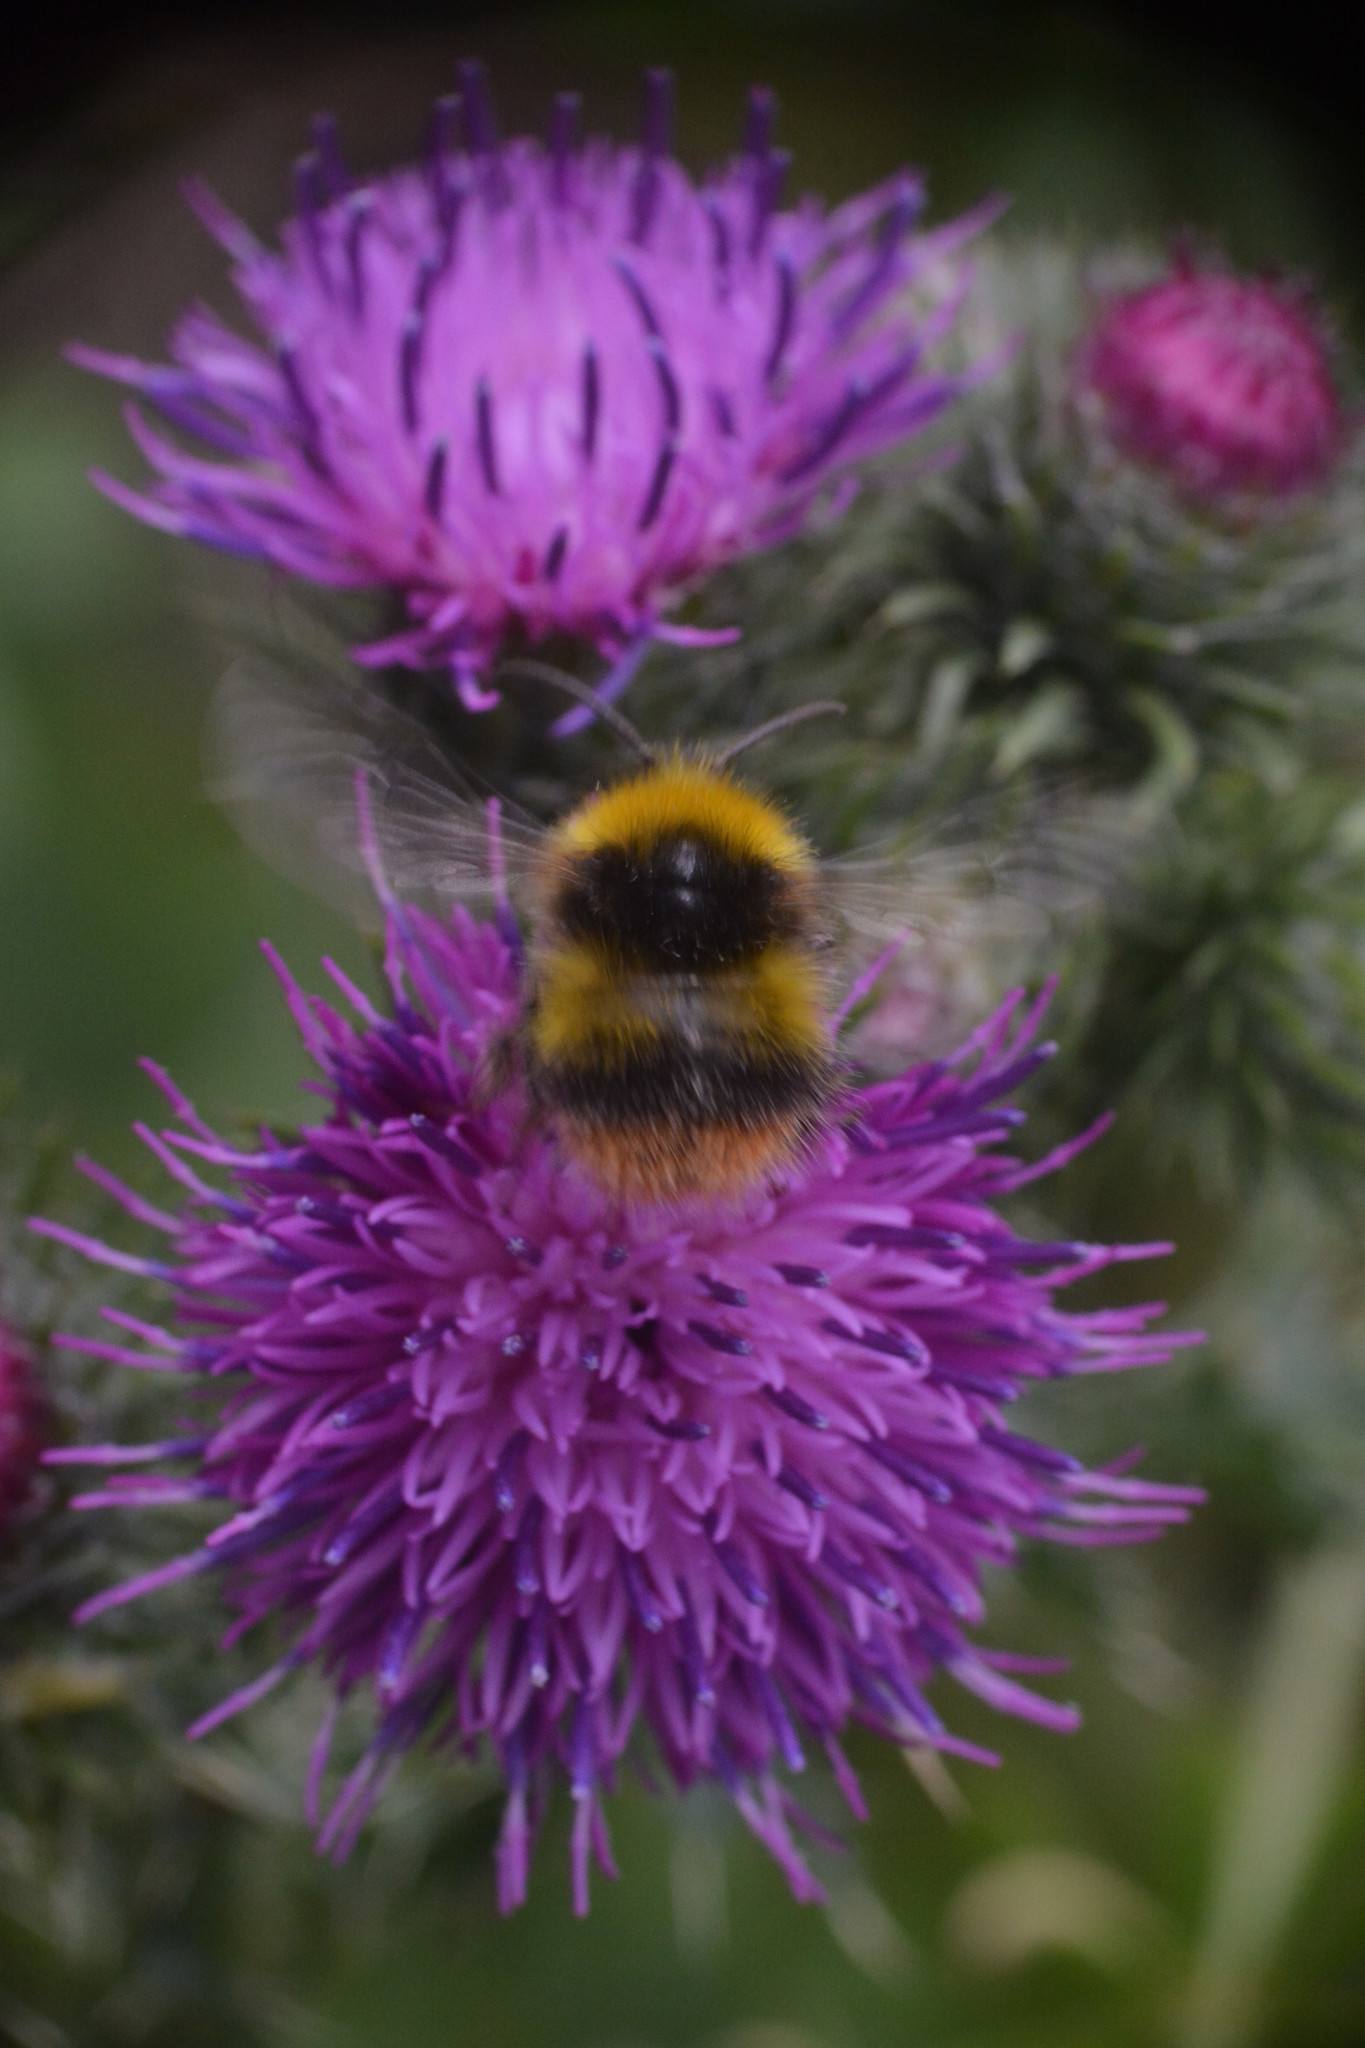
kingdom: Animalia
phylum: Arthropoda
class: Insecta
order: Hymenoptera
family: Apidae
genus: Bombus
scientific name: Bombus pratorum
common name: Early humble-bee
